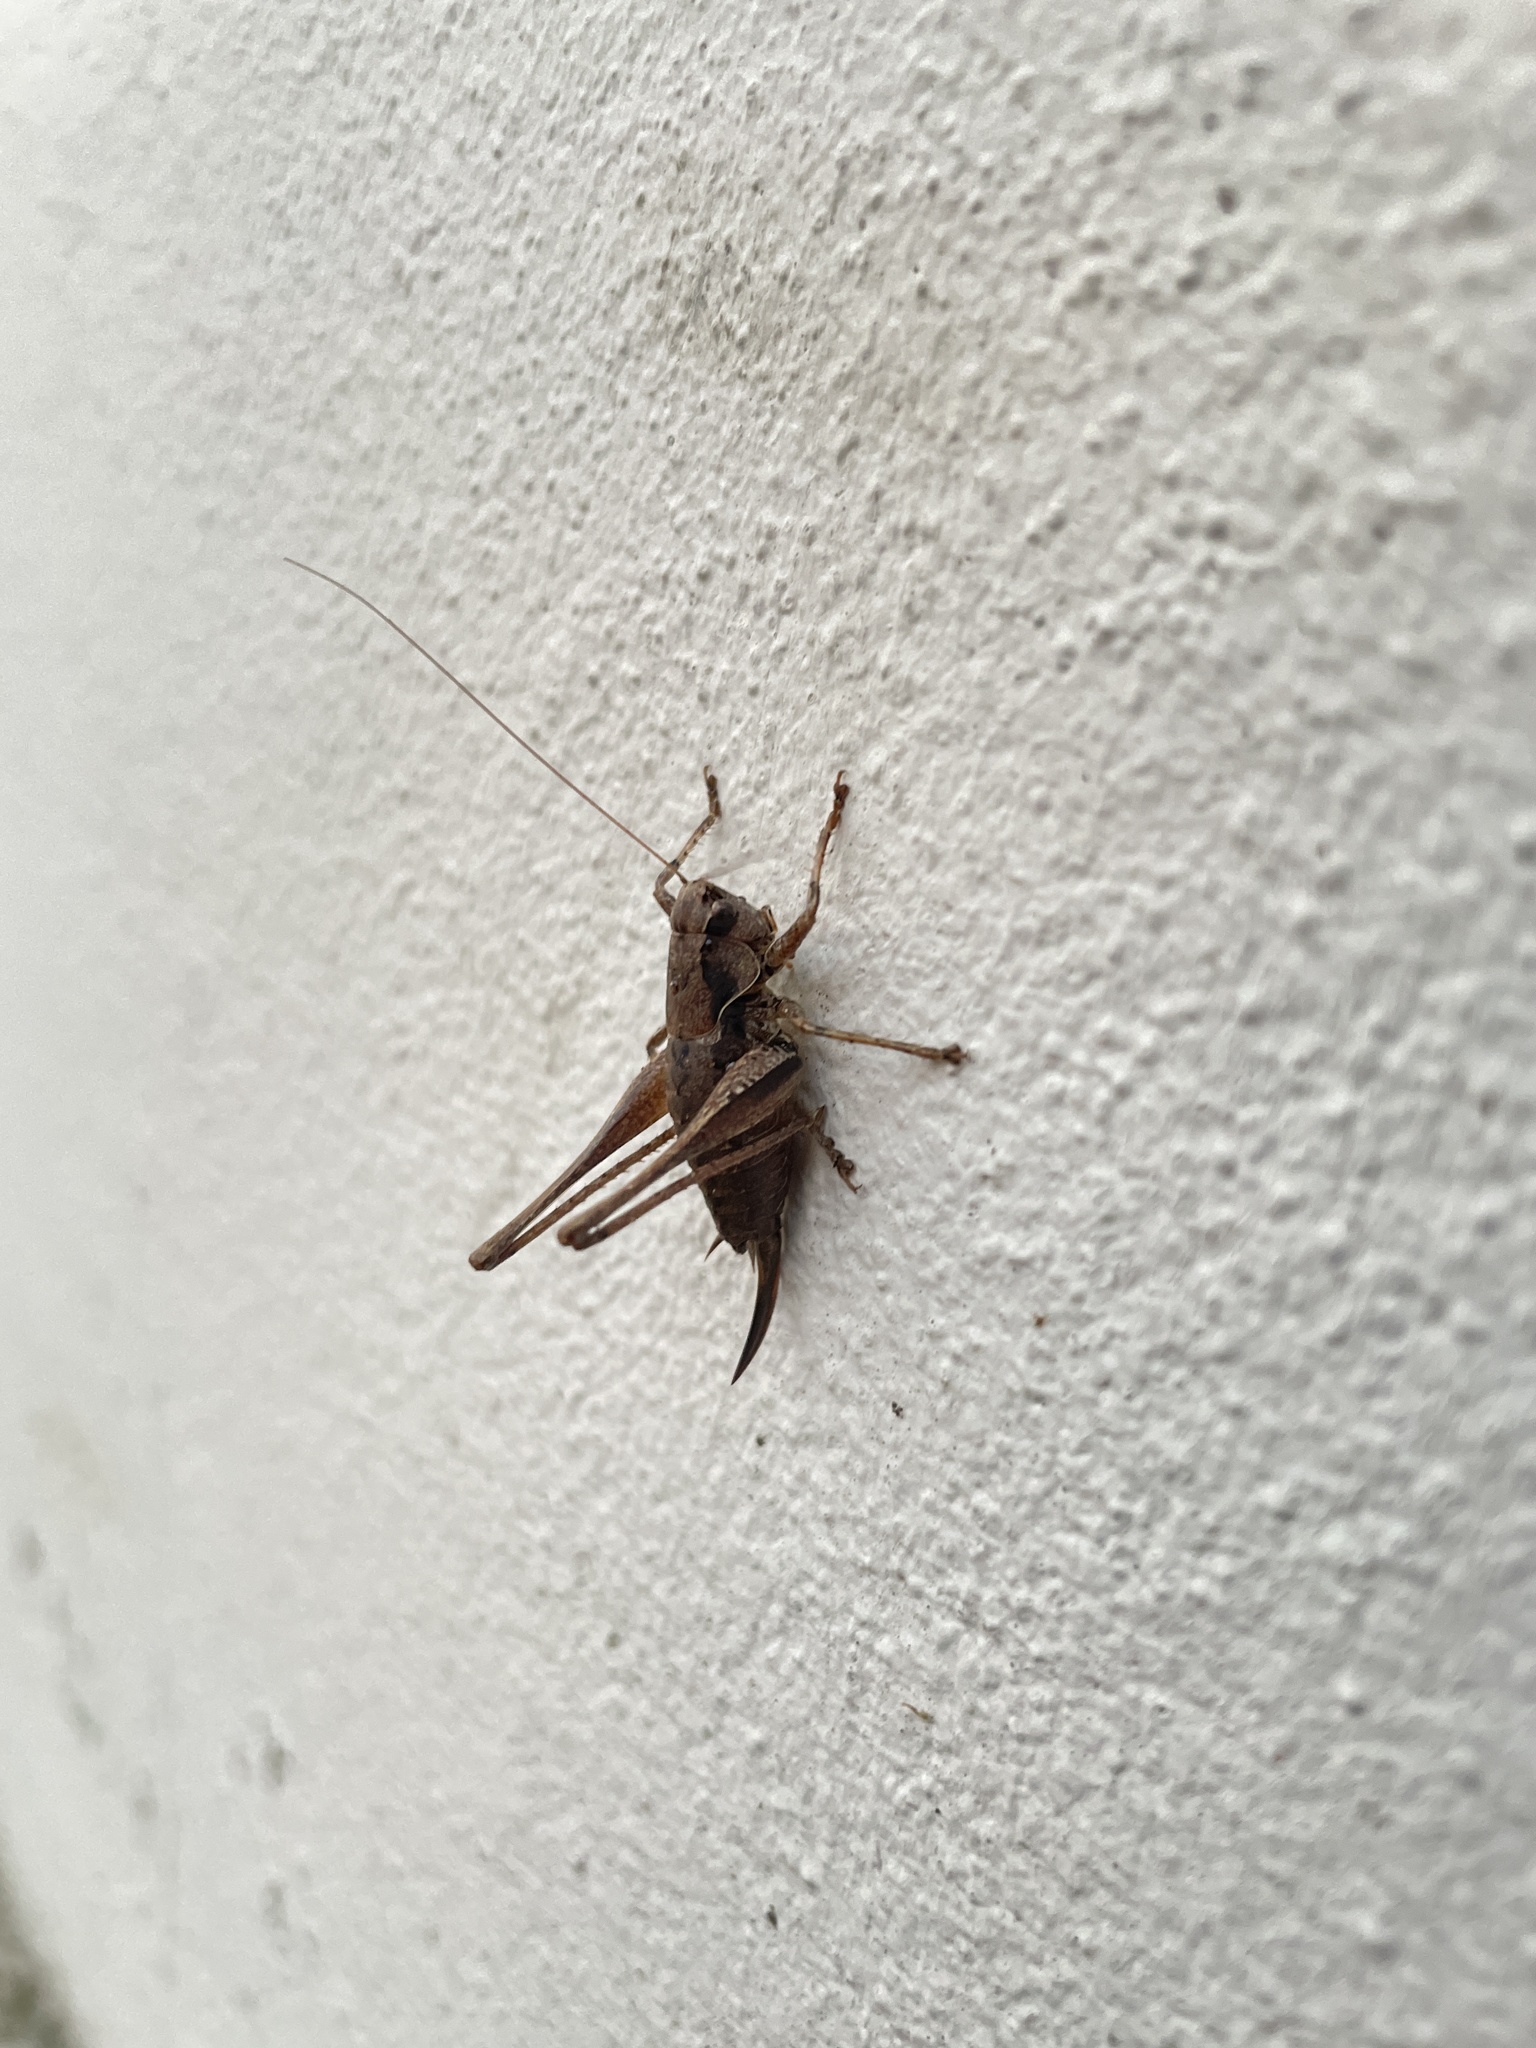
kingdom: Animalia
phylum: Arthropoda
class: Insecta
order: Orthoptera
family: Tettigoniidae
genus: Pholidoptera
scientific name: Pholidoptera griseoaptera
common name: Dark bush-cricket
